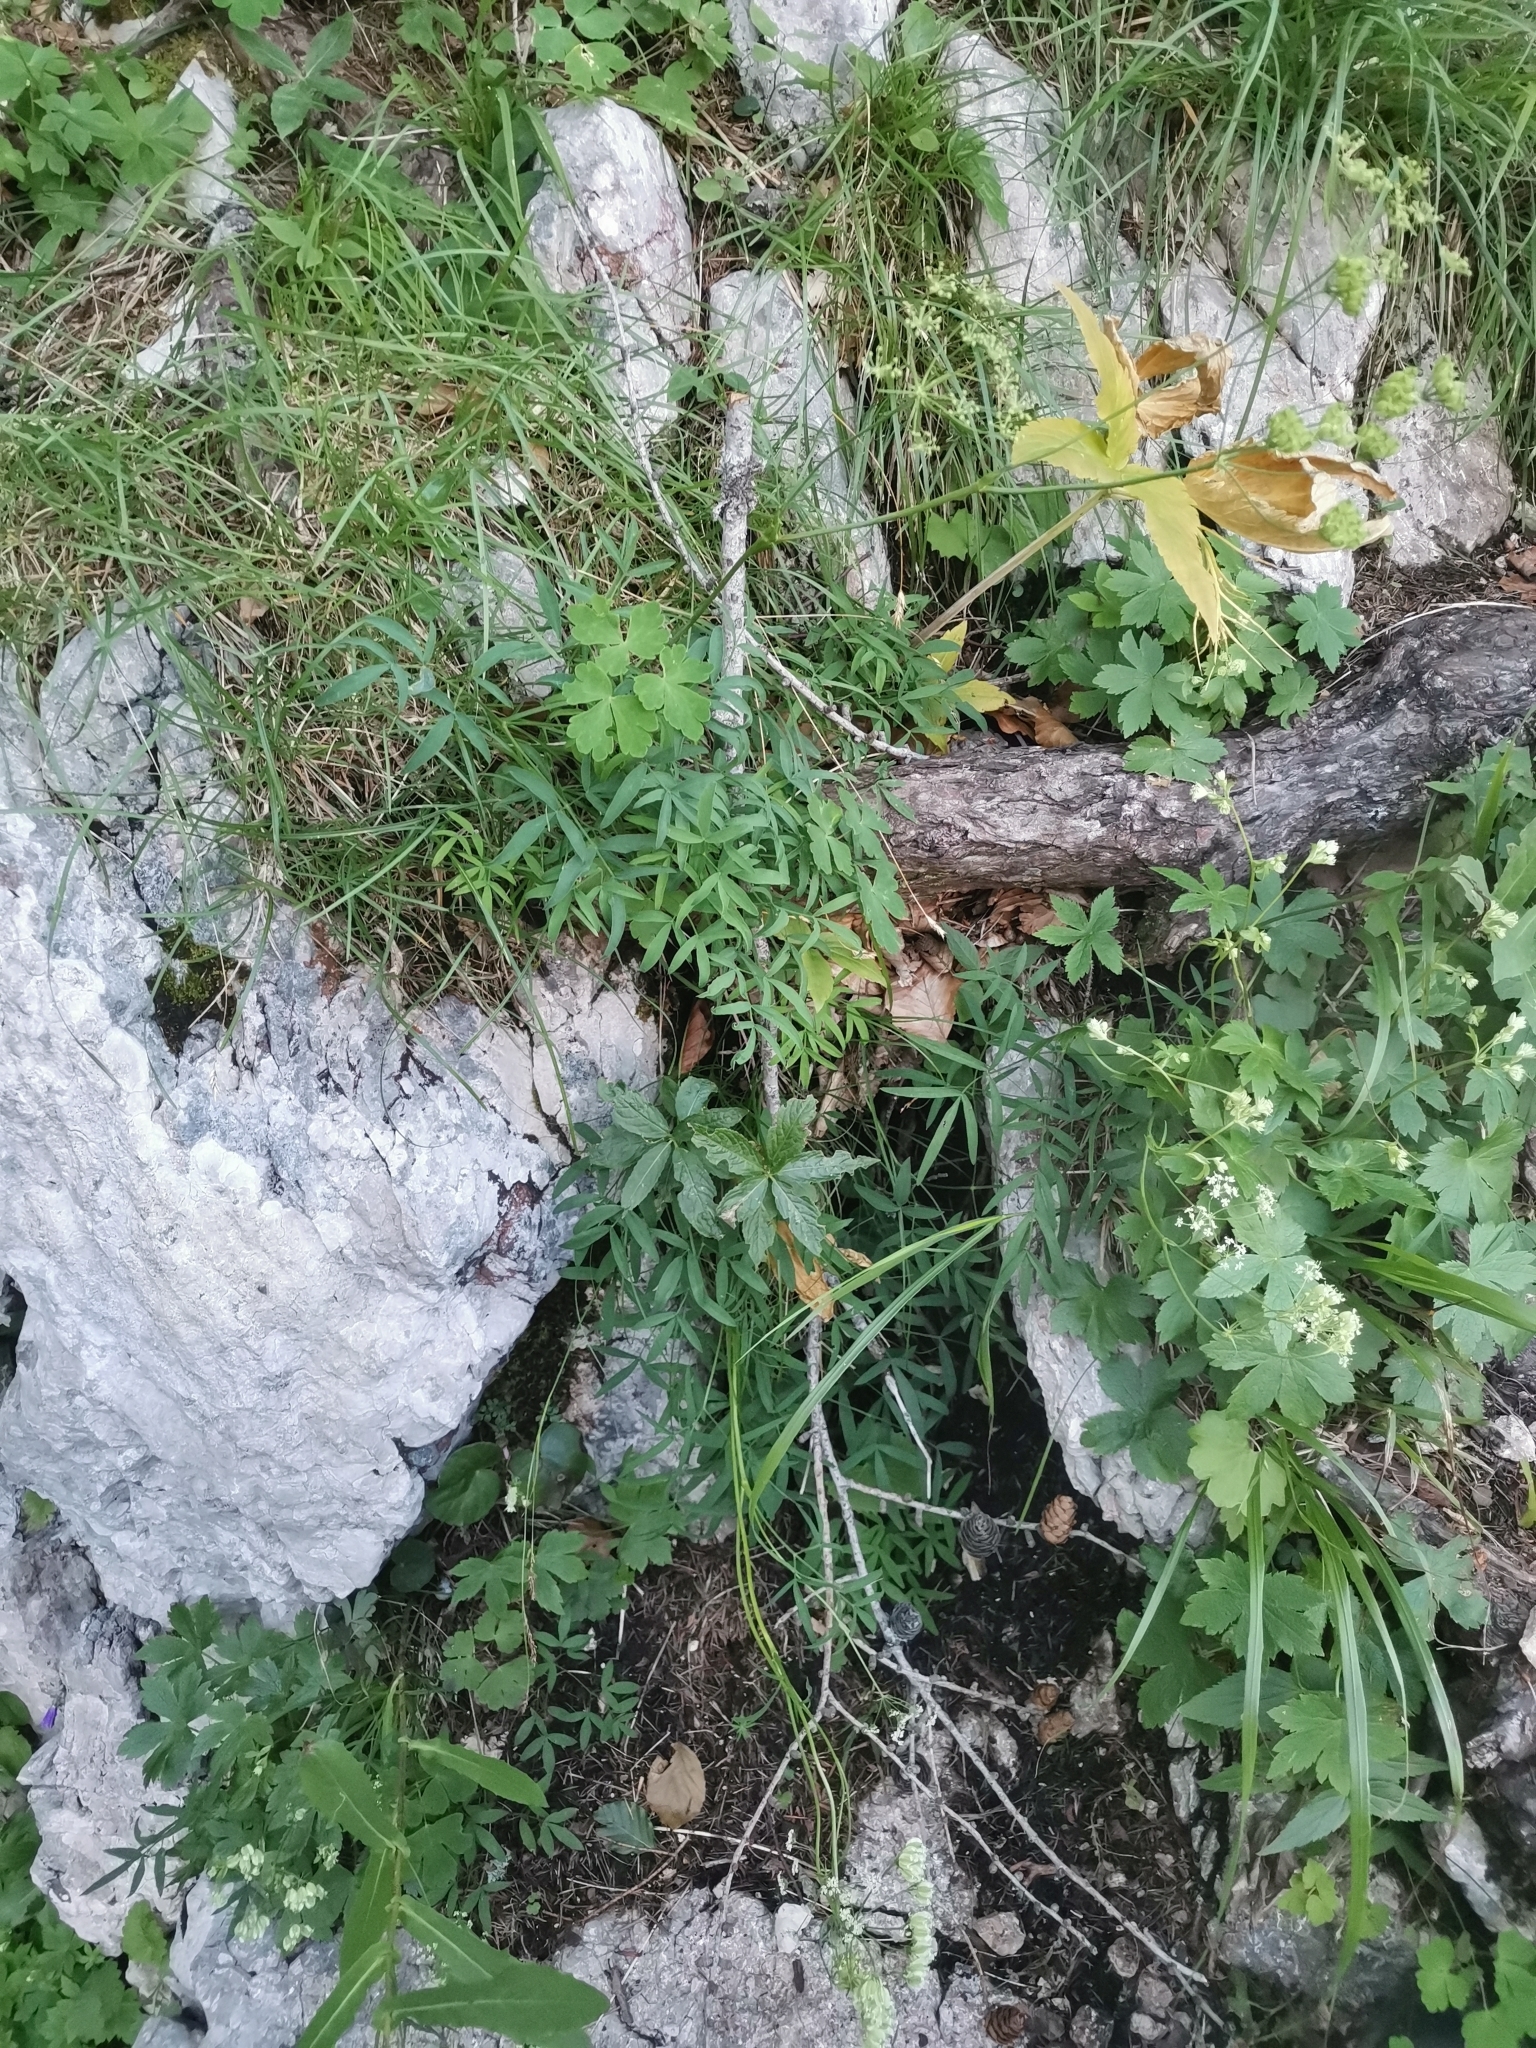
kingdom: Plantae
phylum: Tracheophyta
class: Magnoliopsida
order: Apiales
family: Apiaceae
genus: Laserpitium
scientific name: Laserpitium peucedanoides
